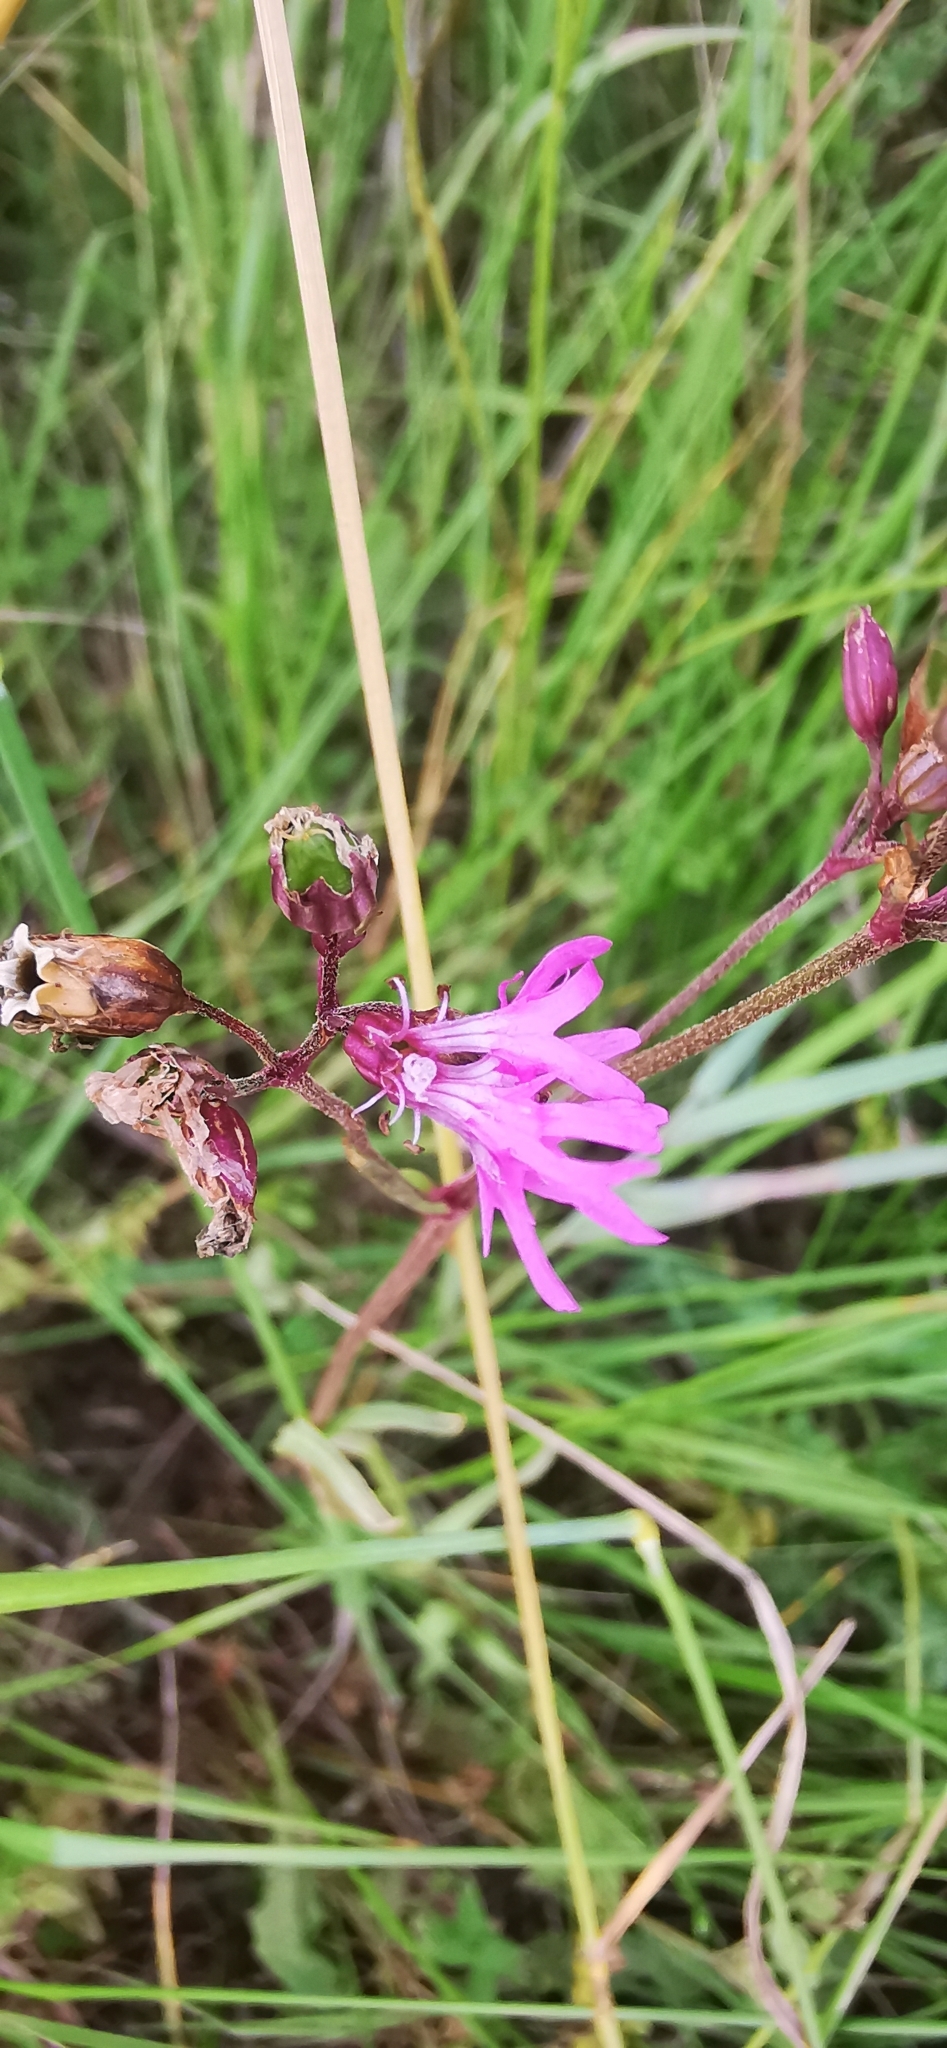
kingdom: Plantae
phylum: Tracheophyta
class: Magnoliopsida
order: Caryophyllales
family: Caryophyllaceae
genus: Silene
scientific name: Silene flos-cuculi
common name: Ragged-robin
